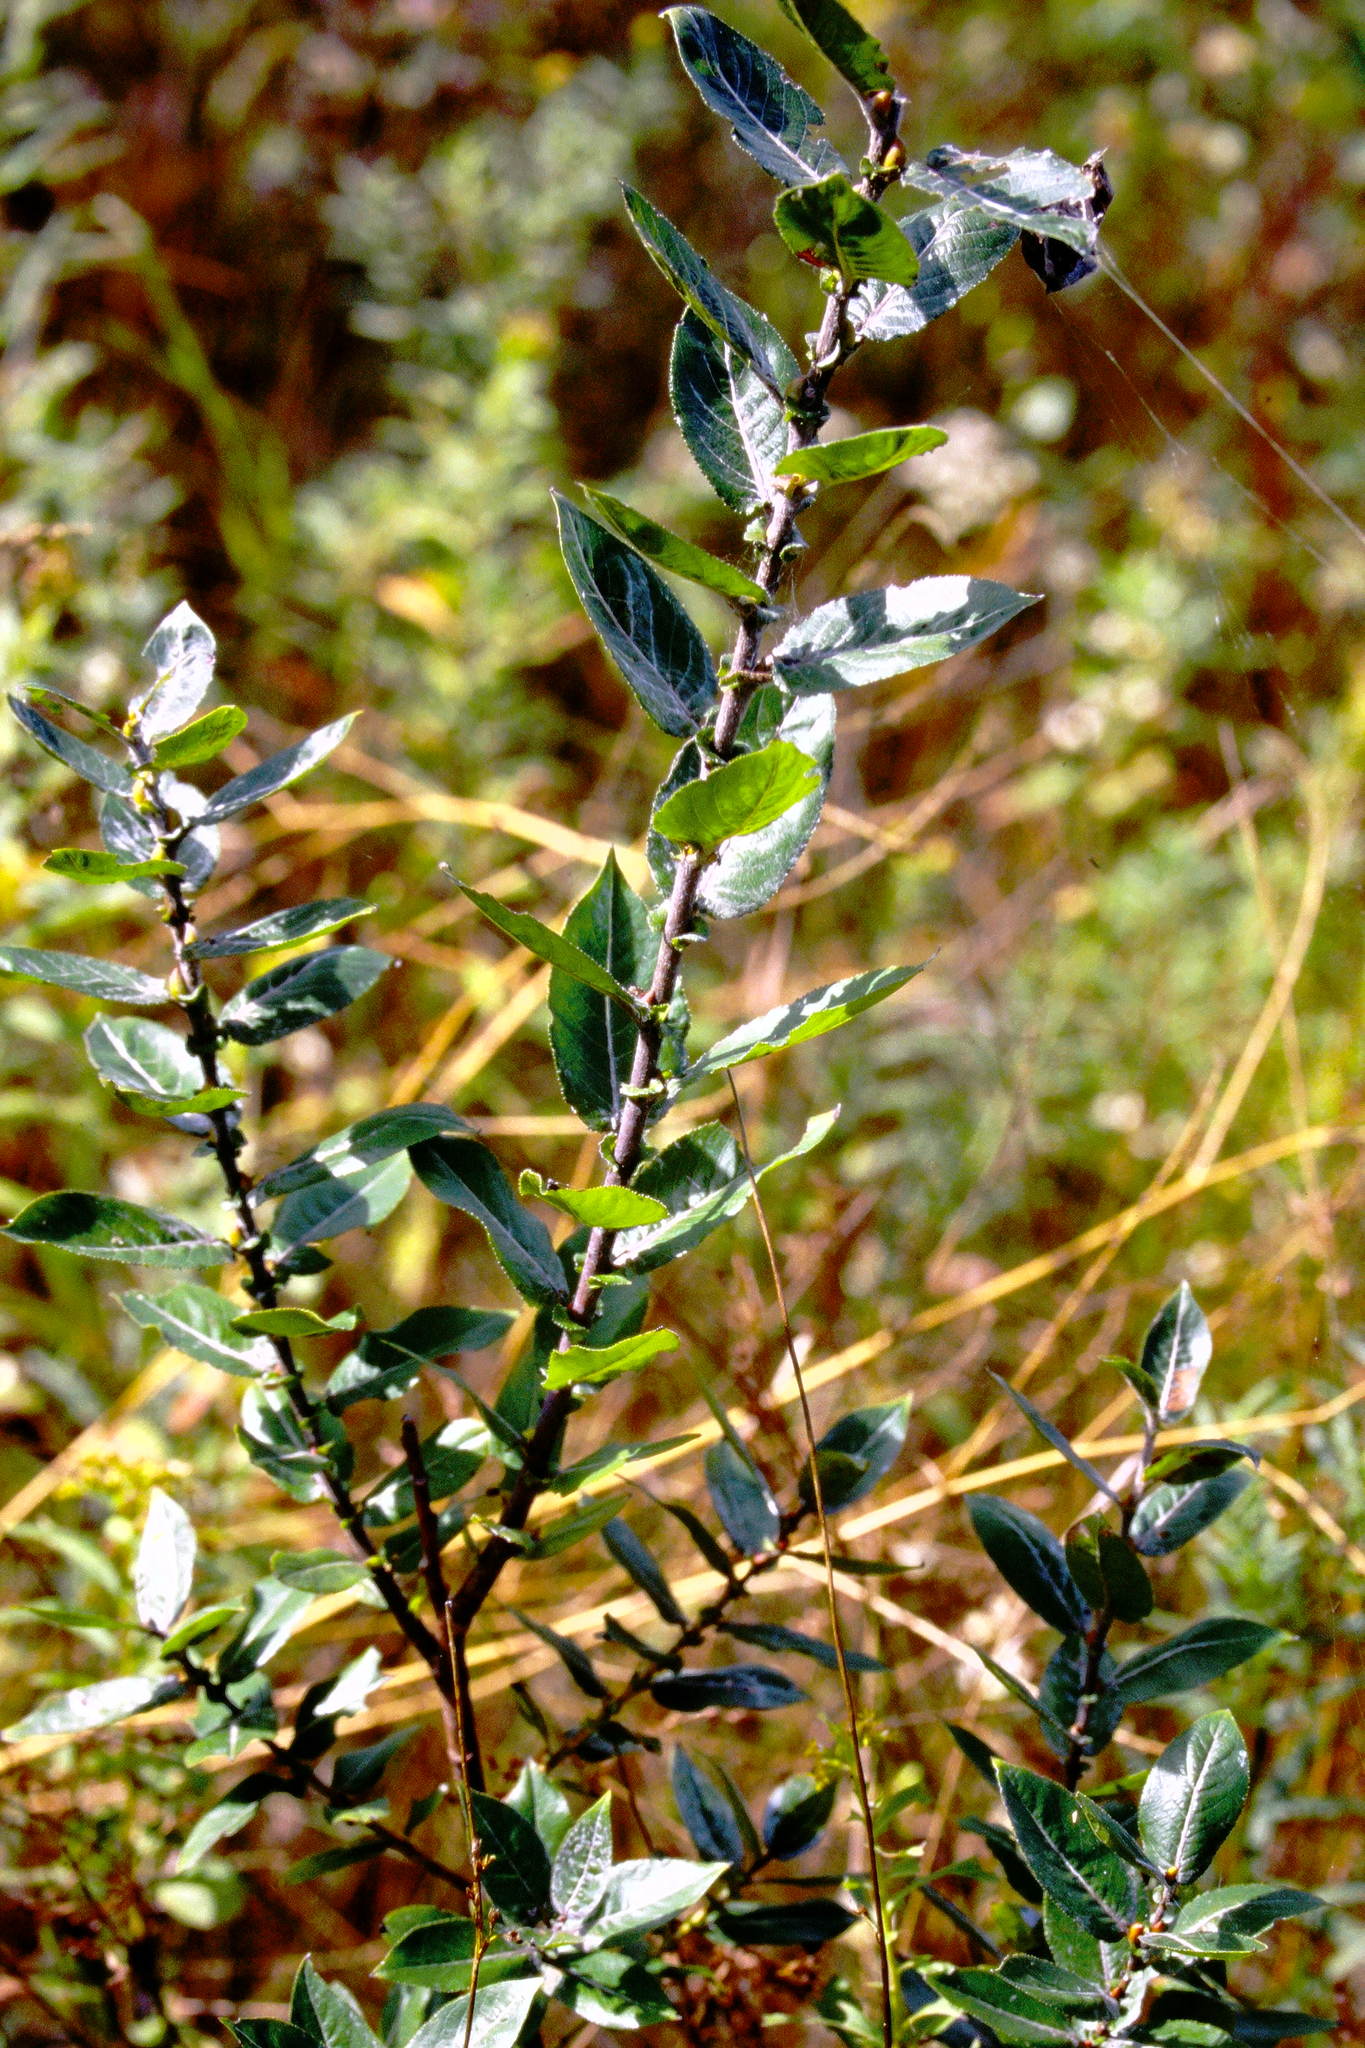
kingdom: Plantae
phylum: Tracheophyta
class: Magnoliopsida
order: Malpighiales
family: Salicaceae
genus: Salix
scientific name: Salix cordata
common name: Heart-leaf willow
